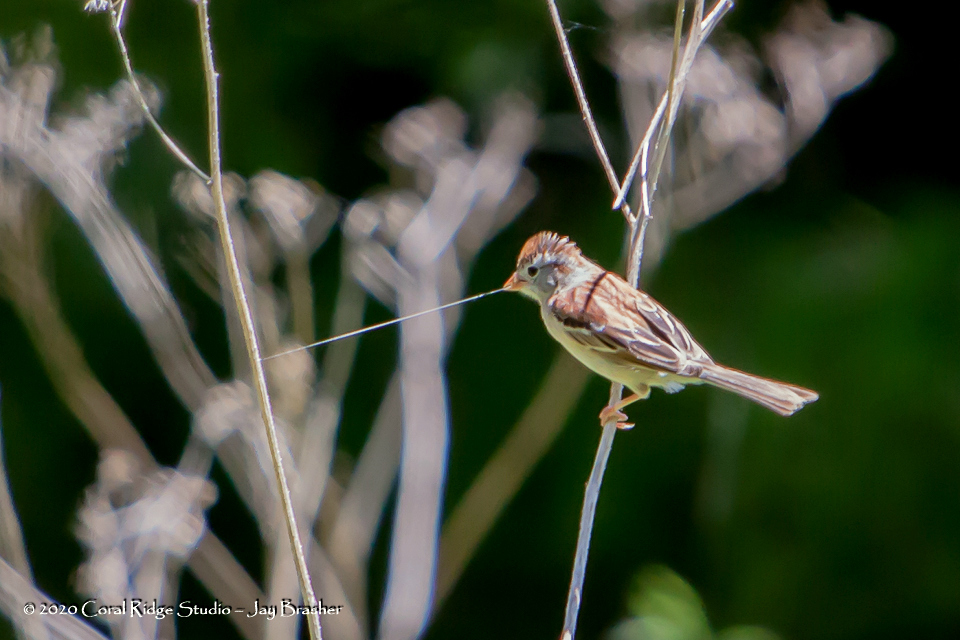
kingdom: Animalia
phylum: Chordata
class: Aves
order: Passeriformes
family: Passerellidae
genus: Spizella
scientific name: Spizella pusilla
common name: Field sparrow
